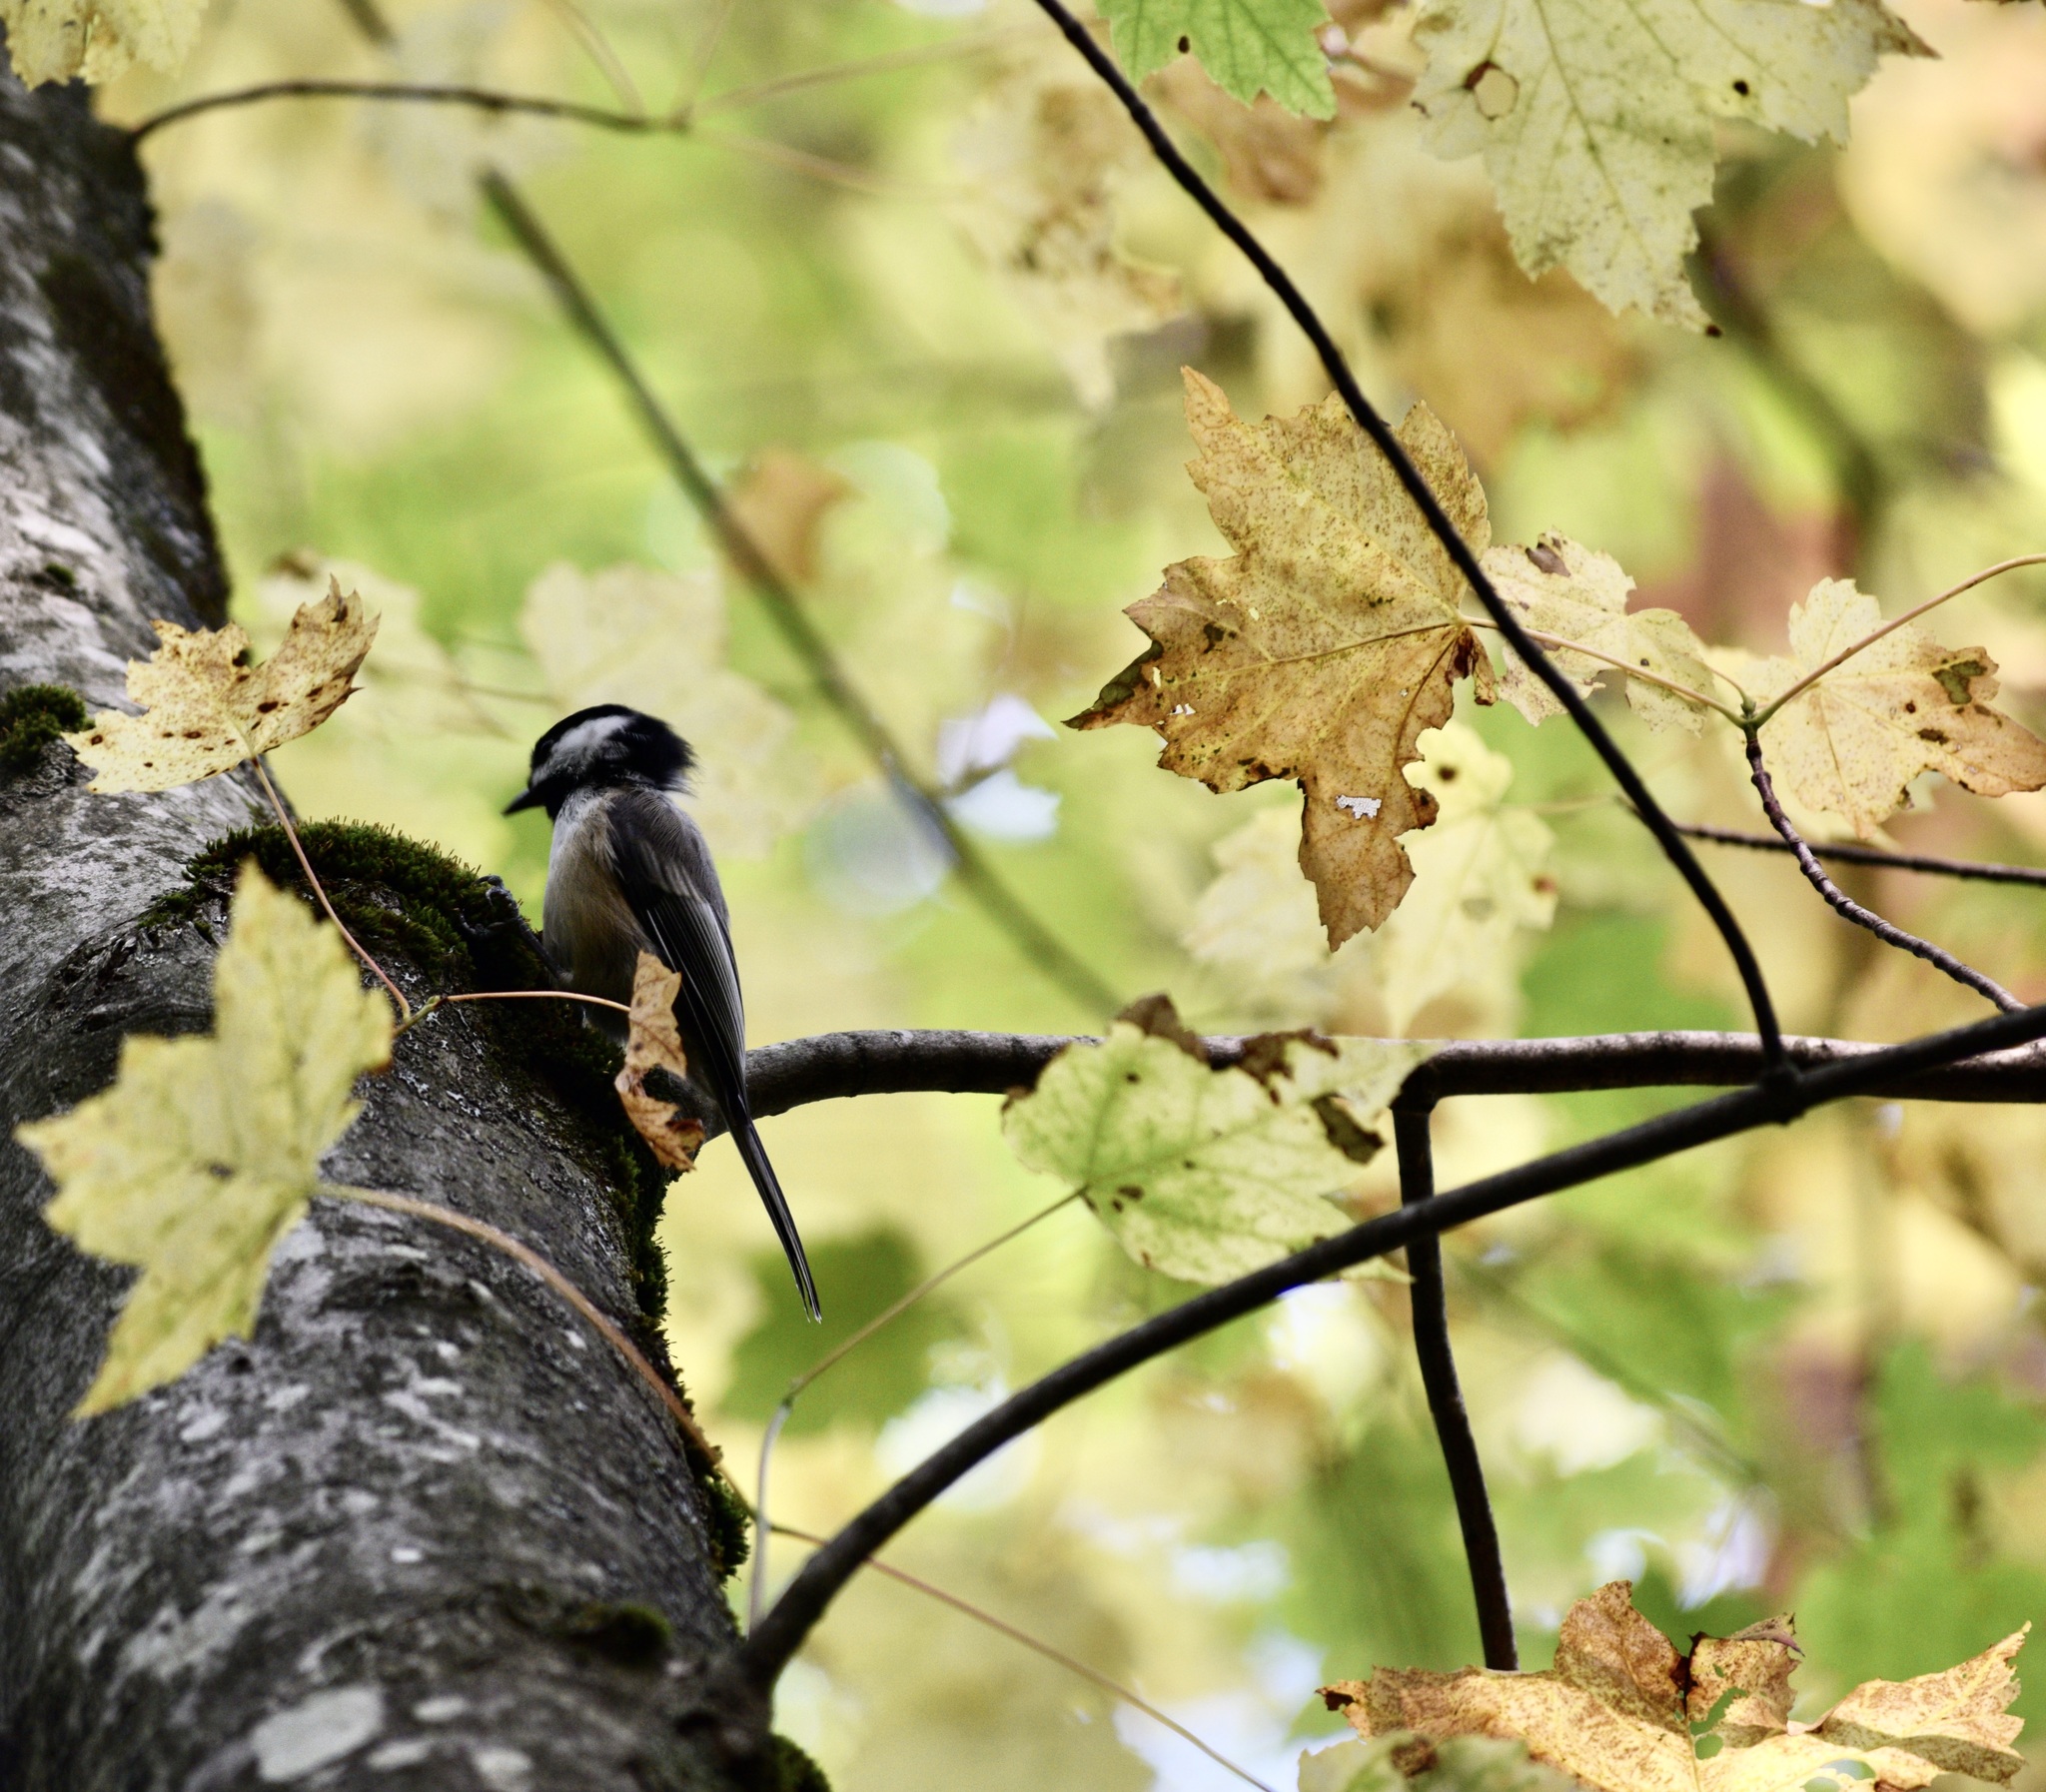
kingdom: Animalia
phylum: Chordata
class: Aves
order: Passeriformes
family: Paridae
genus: Poecile
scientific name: Poecile atricapillus
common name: Black-capped chickadee
